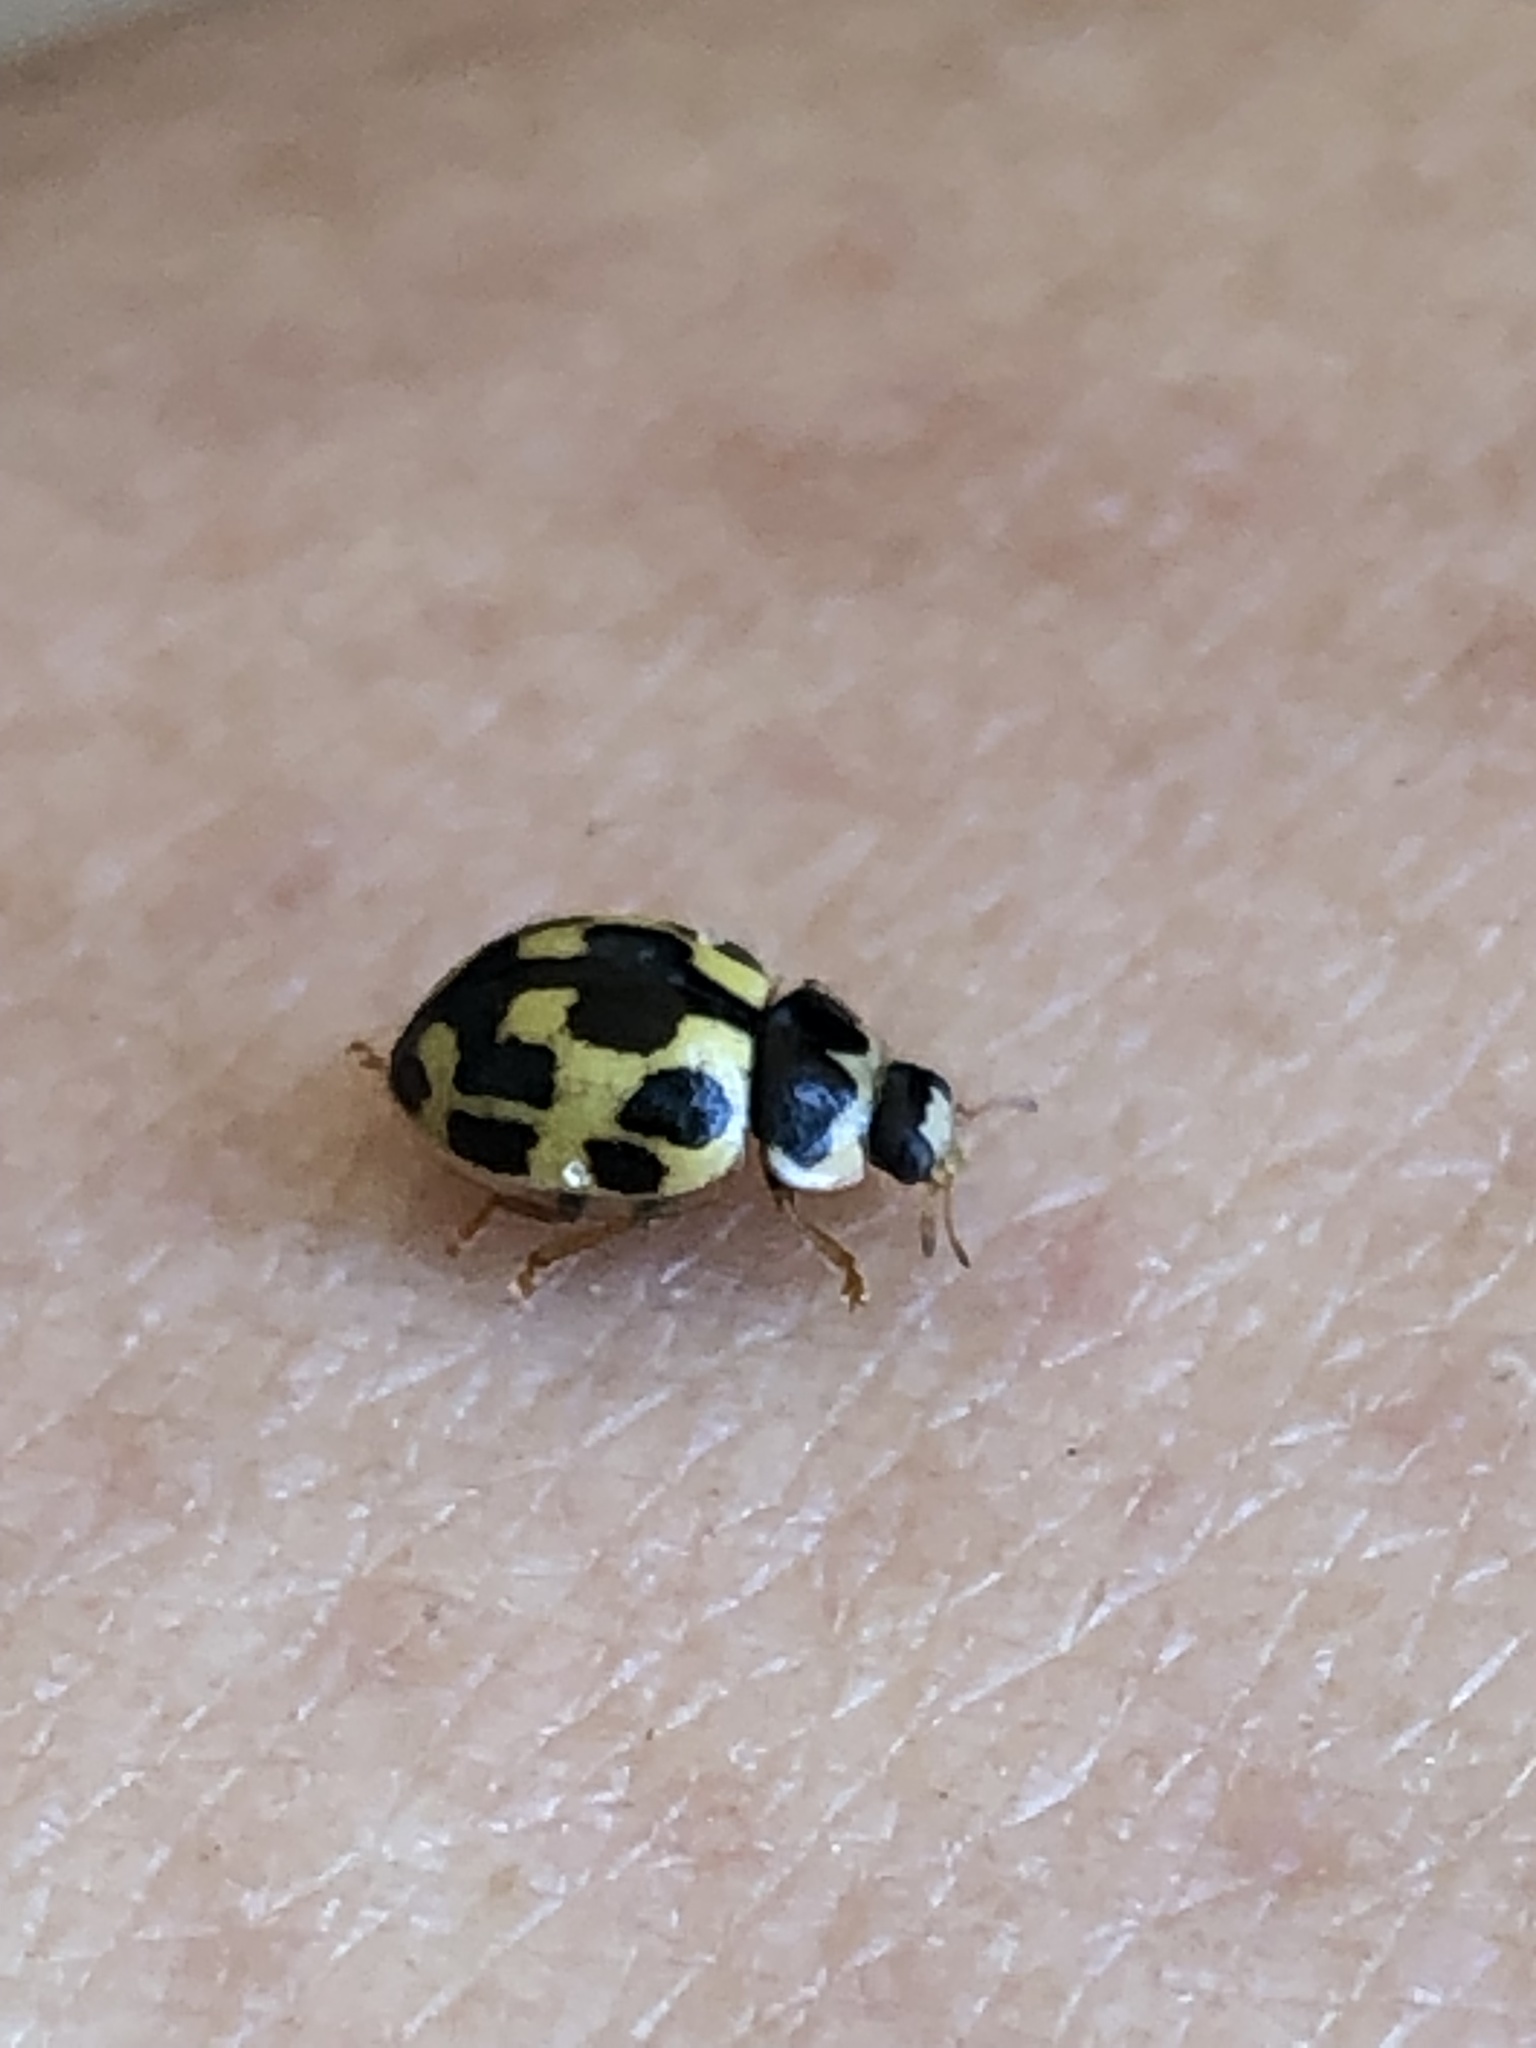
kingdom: Animalia
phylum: Arthropoda
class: Insecta
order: Coleoptera
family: Coccinellidae
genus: Propylaea
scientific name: Propylaea quatuordecimpunctata
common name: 14-spotted ladybird beetle
